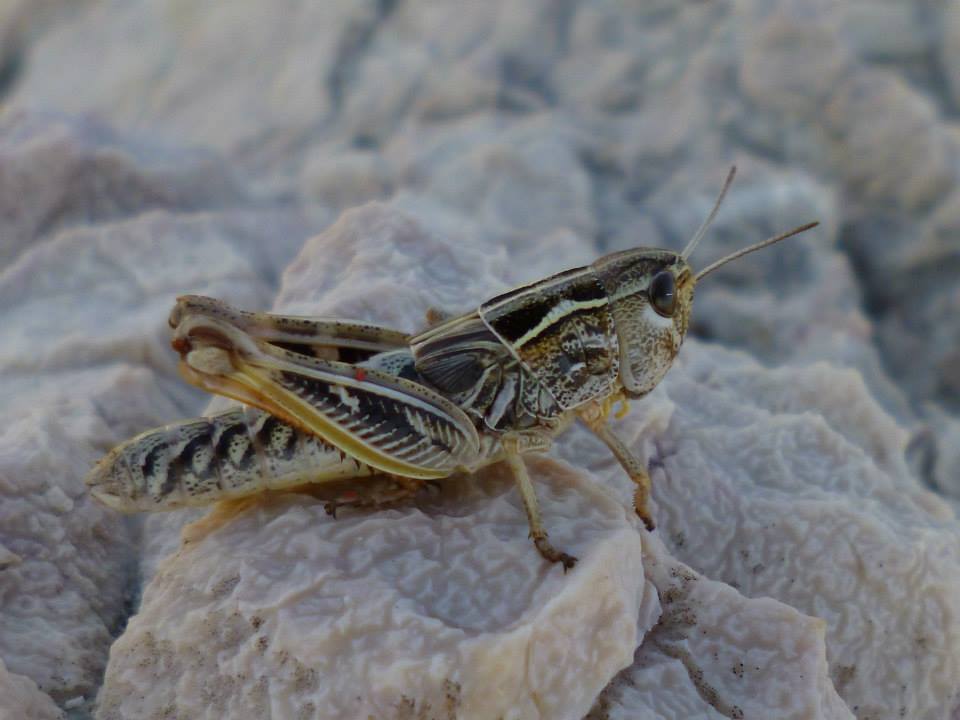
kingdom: Animalia
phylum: Arthropoda
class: Insecta
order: Orthoptera
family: Acrididae
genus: Arcyptera
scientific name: Arcyptera brevipennis
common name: Western banded grasshopper
